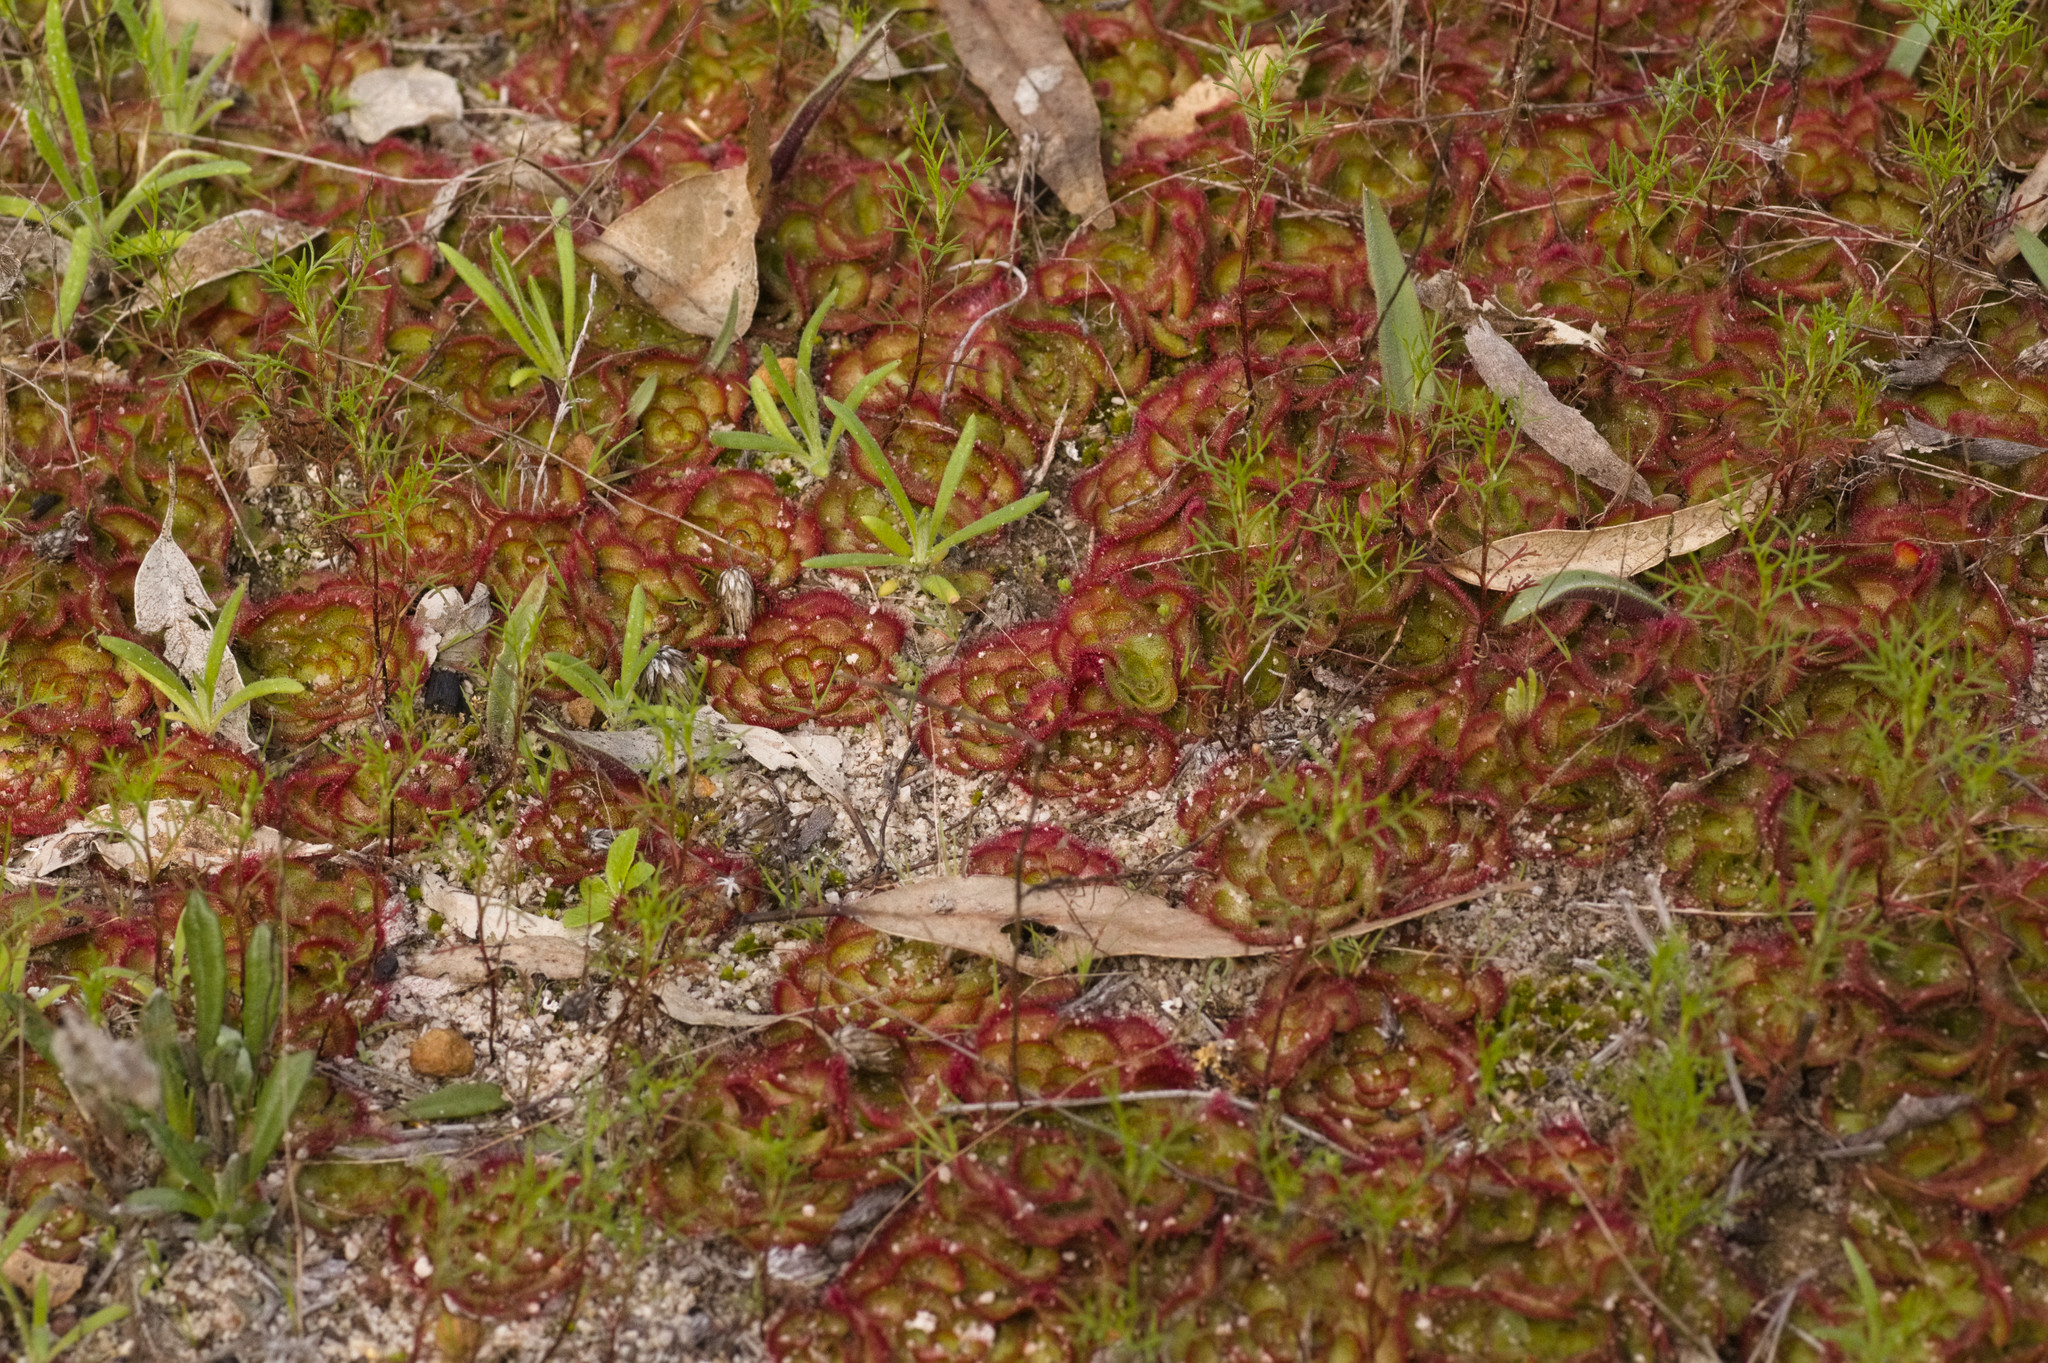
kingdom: Plantae
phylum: Tracheophyta
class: Magnoliopsida
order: Caryophyllales
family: Droseraceae
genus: Drosera
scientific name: Drosera zonaria
